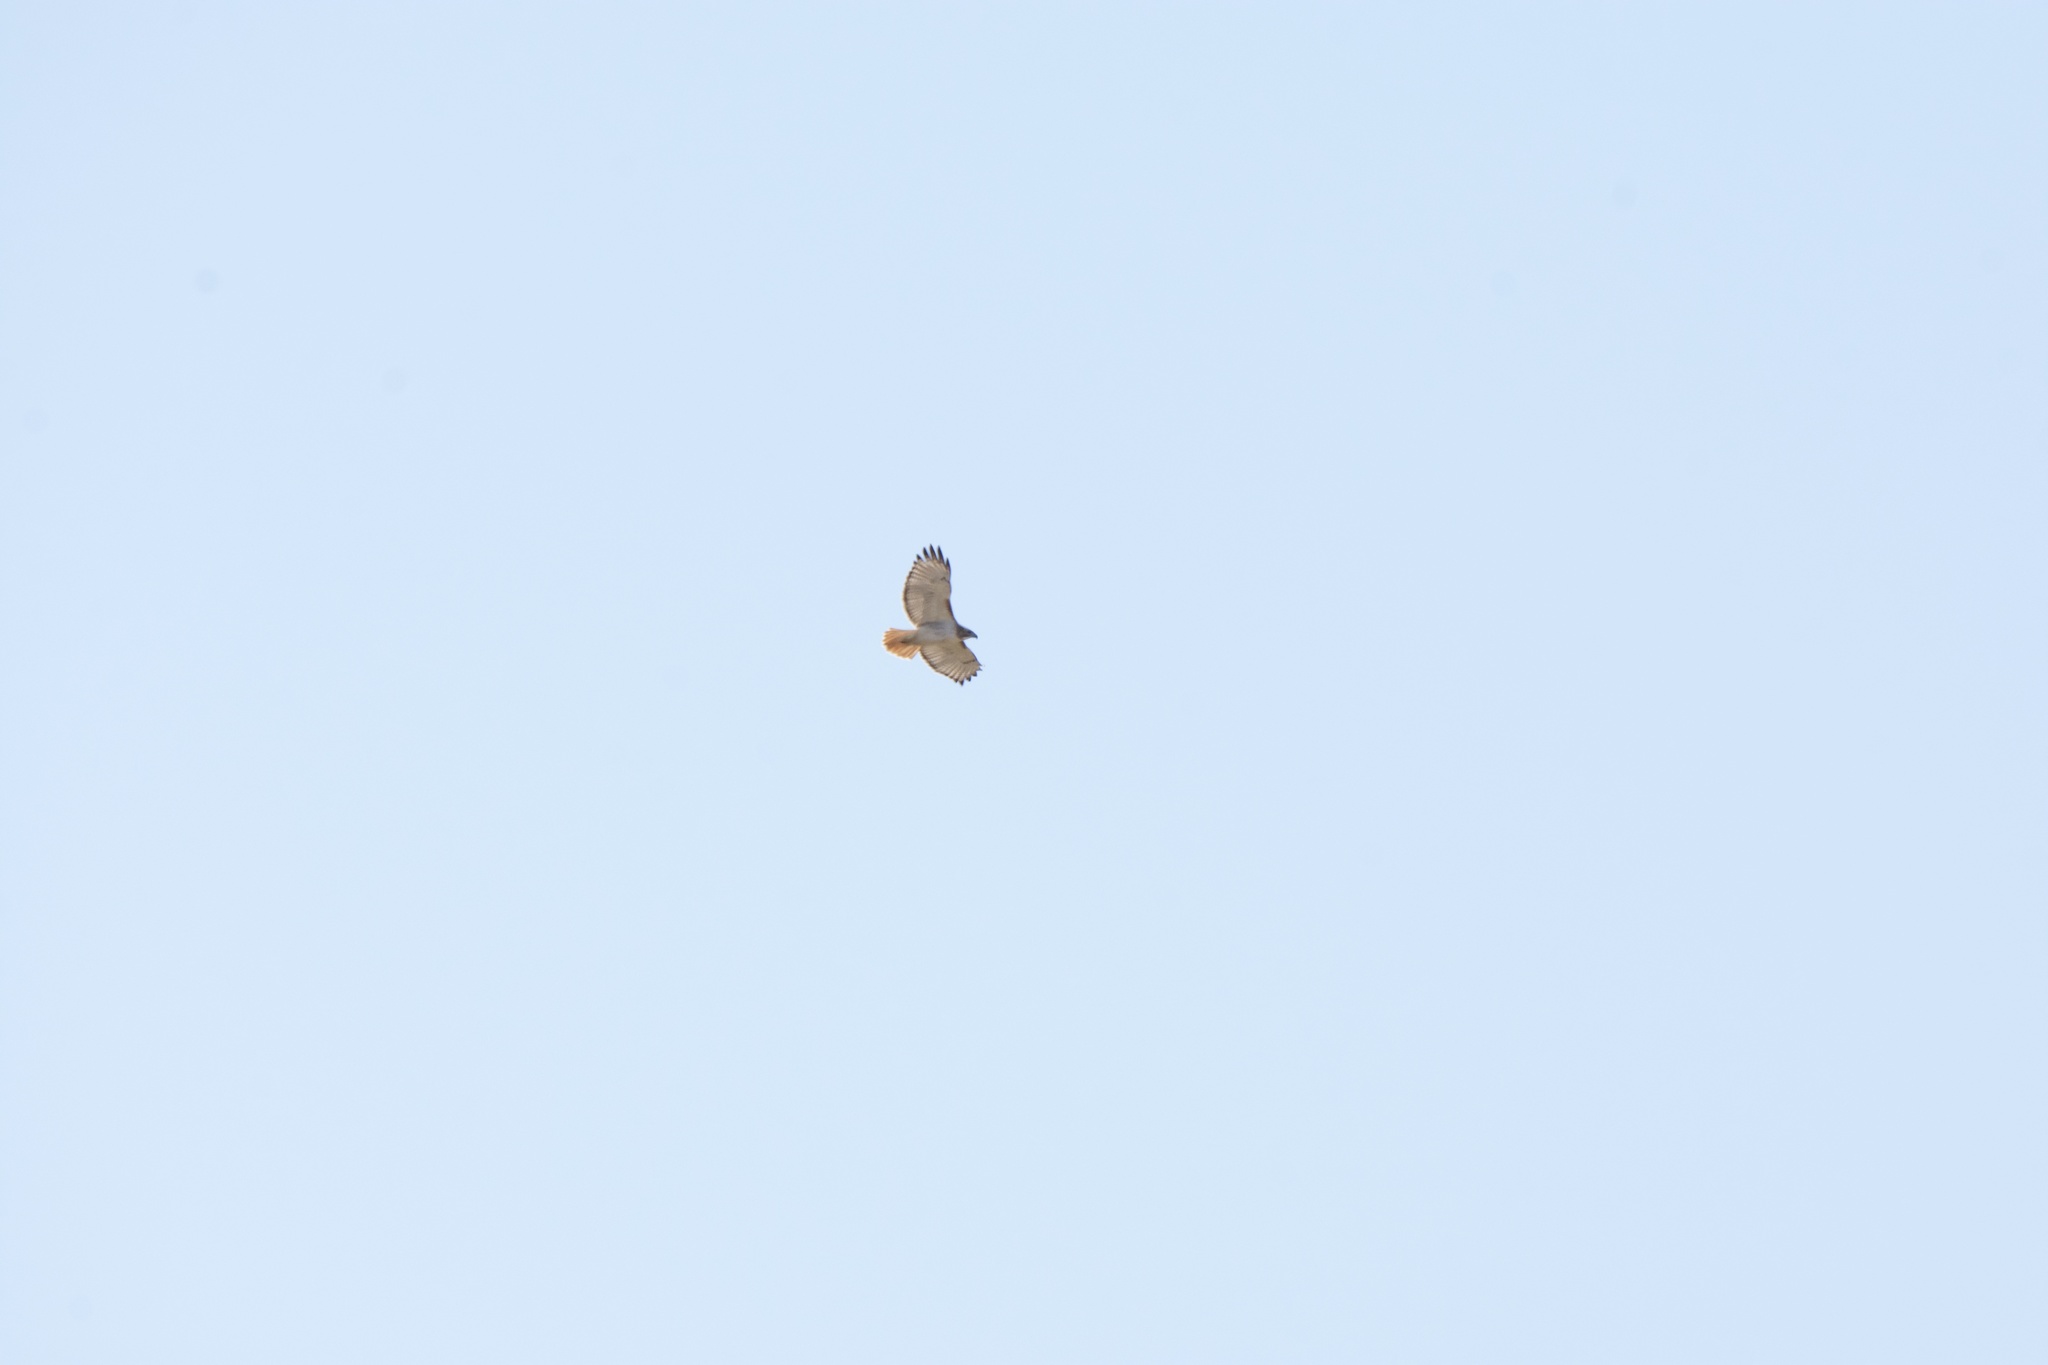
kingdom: Animalia
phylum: Chordata
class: Aves
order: Accipitriformes
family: Accipitridae
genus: Buteo
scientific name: Buteo jamaicensis
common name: Red-tailed hawk
